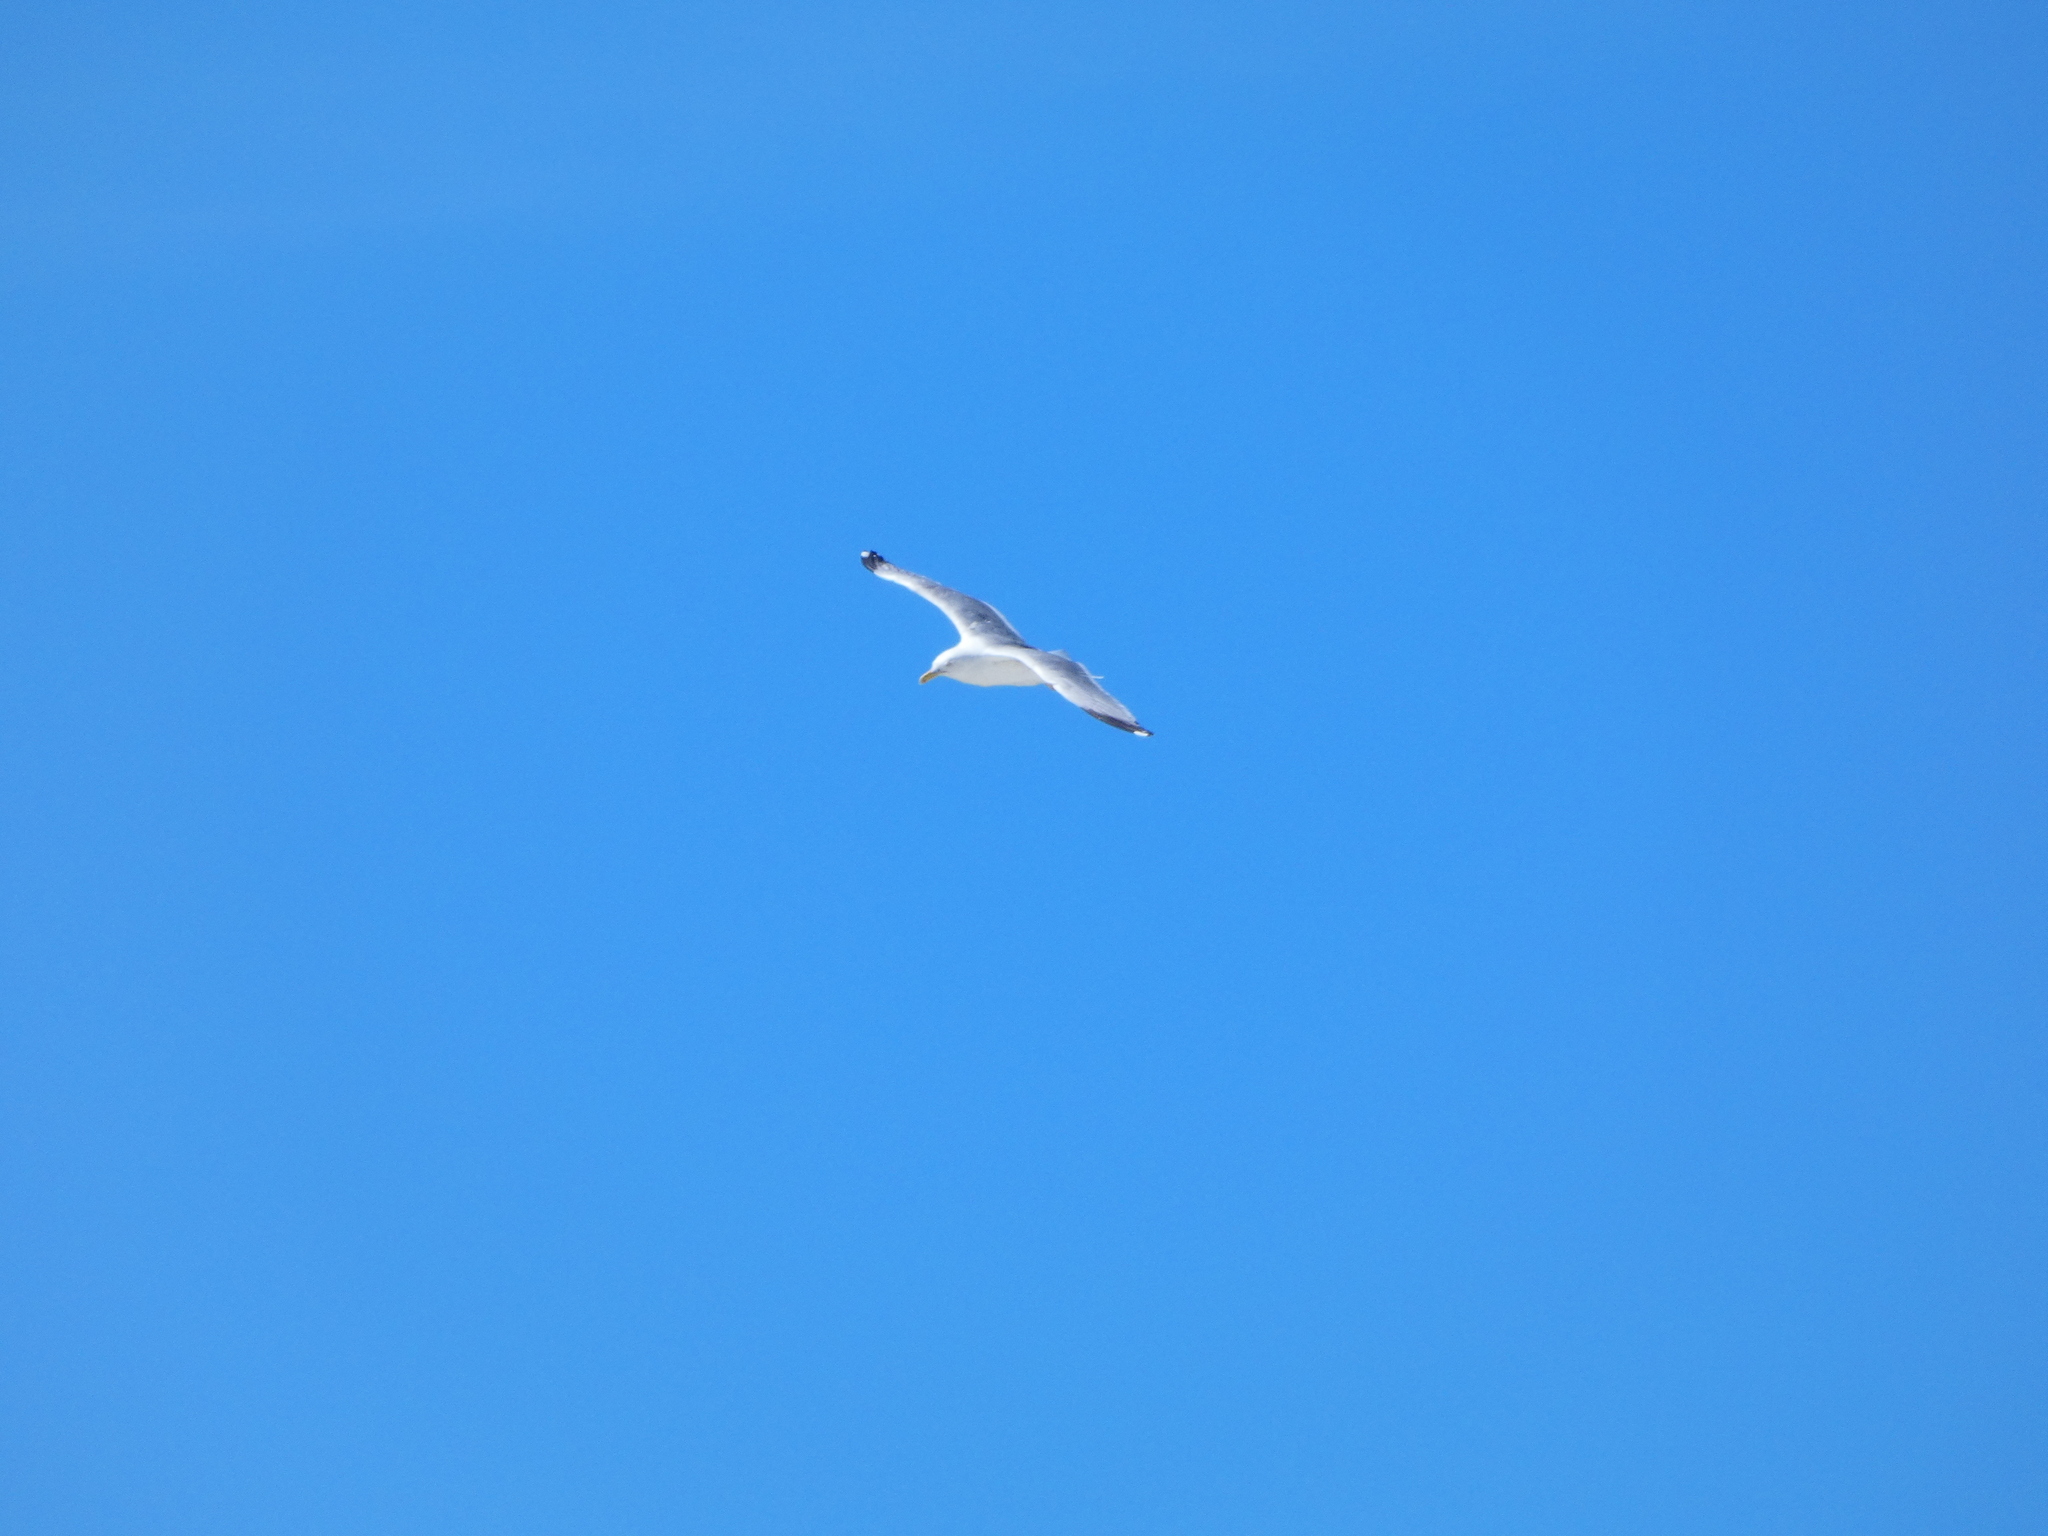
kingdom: Animalia
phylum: Chordata
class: Aves
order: Charadriiformes
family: Laridae
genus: Larus
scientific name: Larus argentatus
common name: Herring gull
